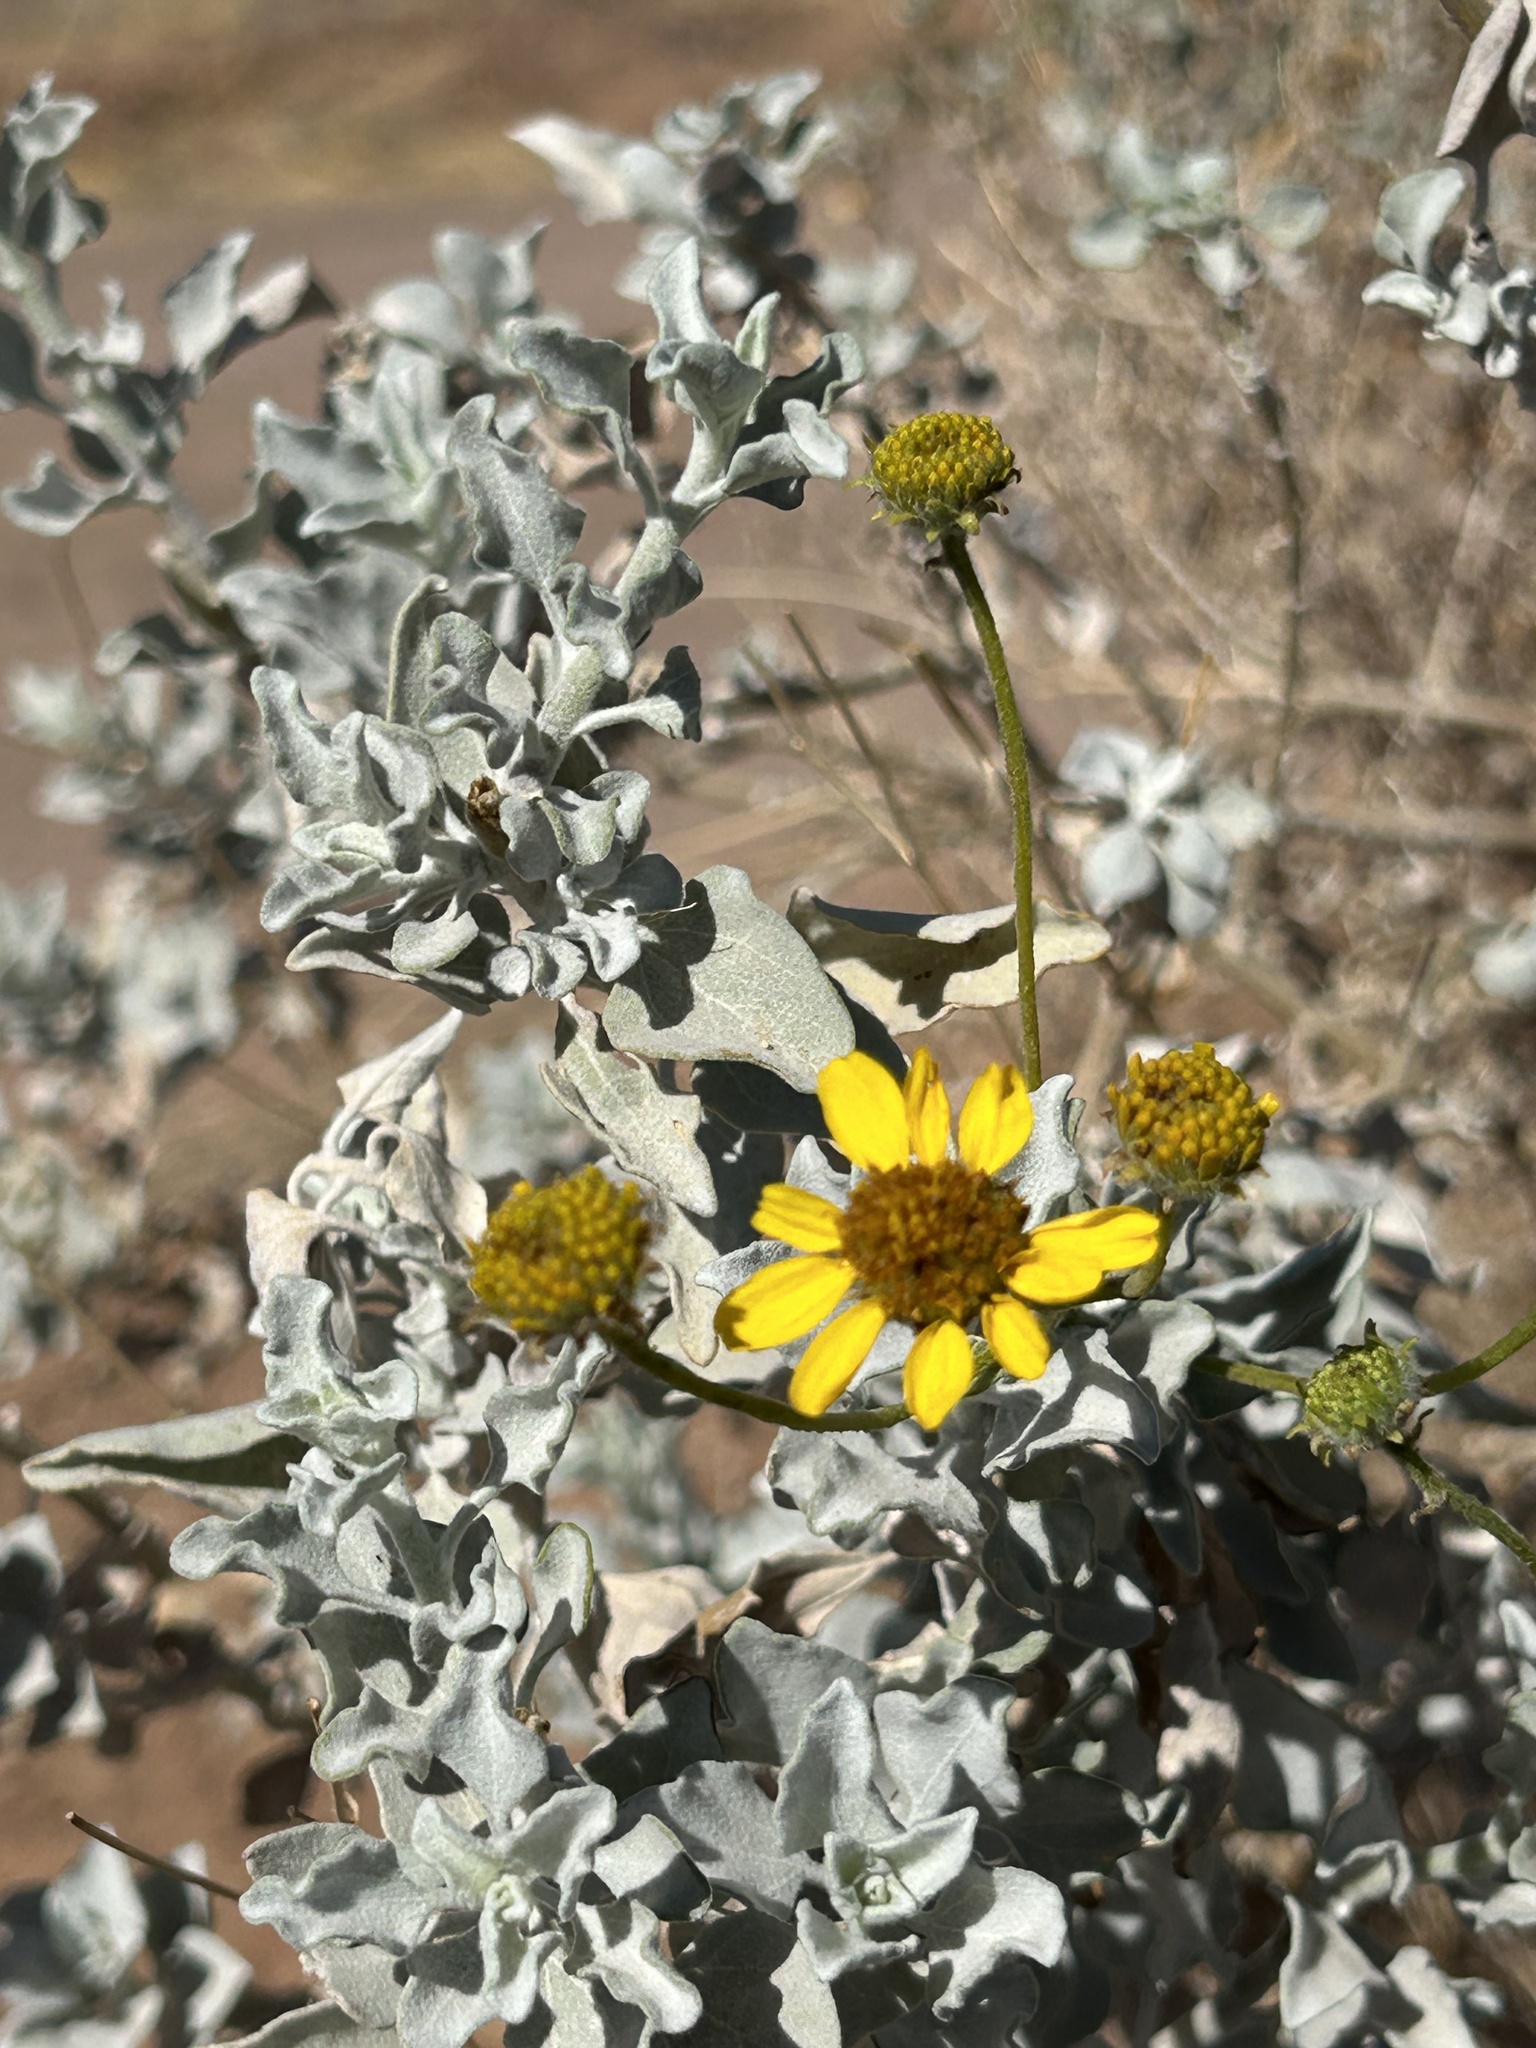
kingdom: Plantae
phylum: Tracheophyta
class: Magnoliopsida
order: Asterales
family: Asteraceae
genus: Encelia
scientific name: Encelia farinosa
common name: Brittlebush
